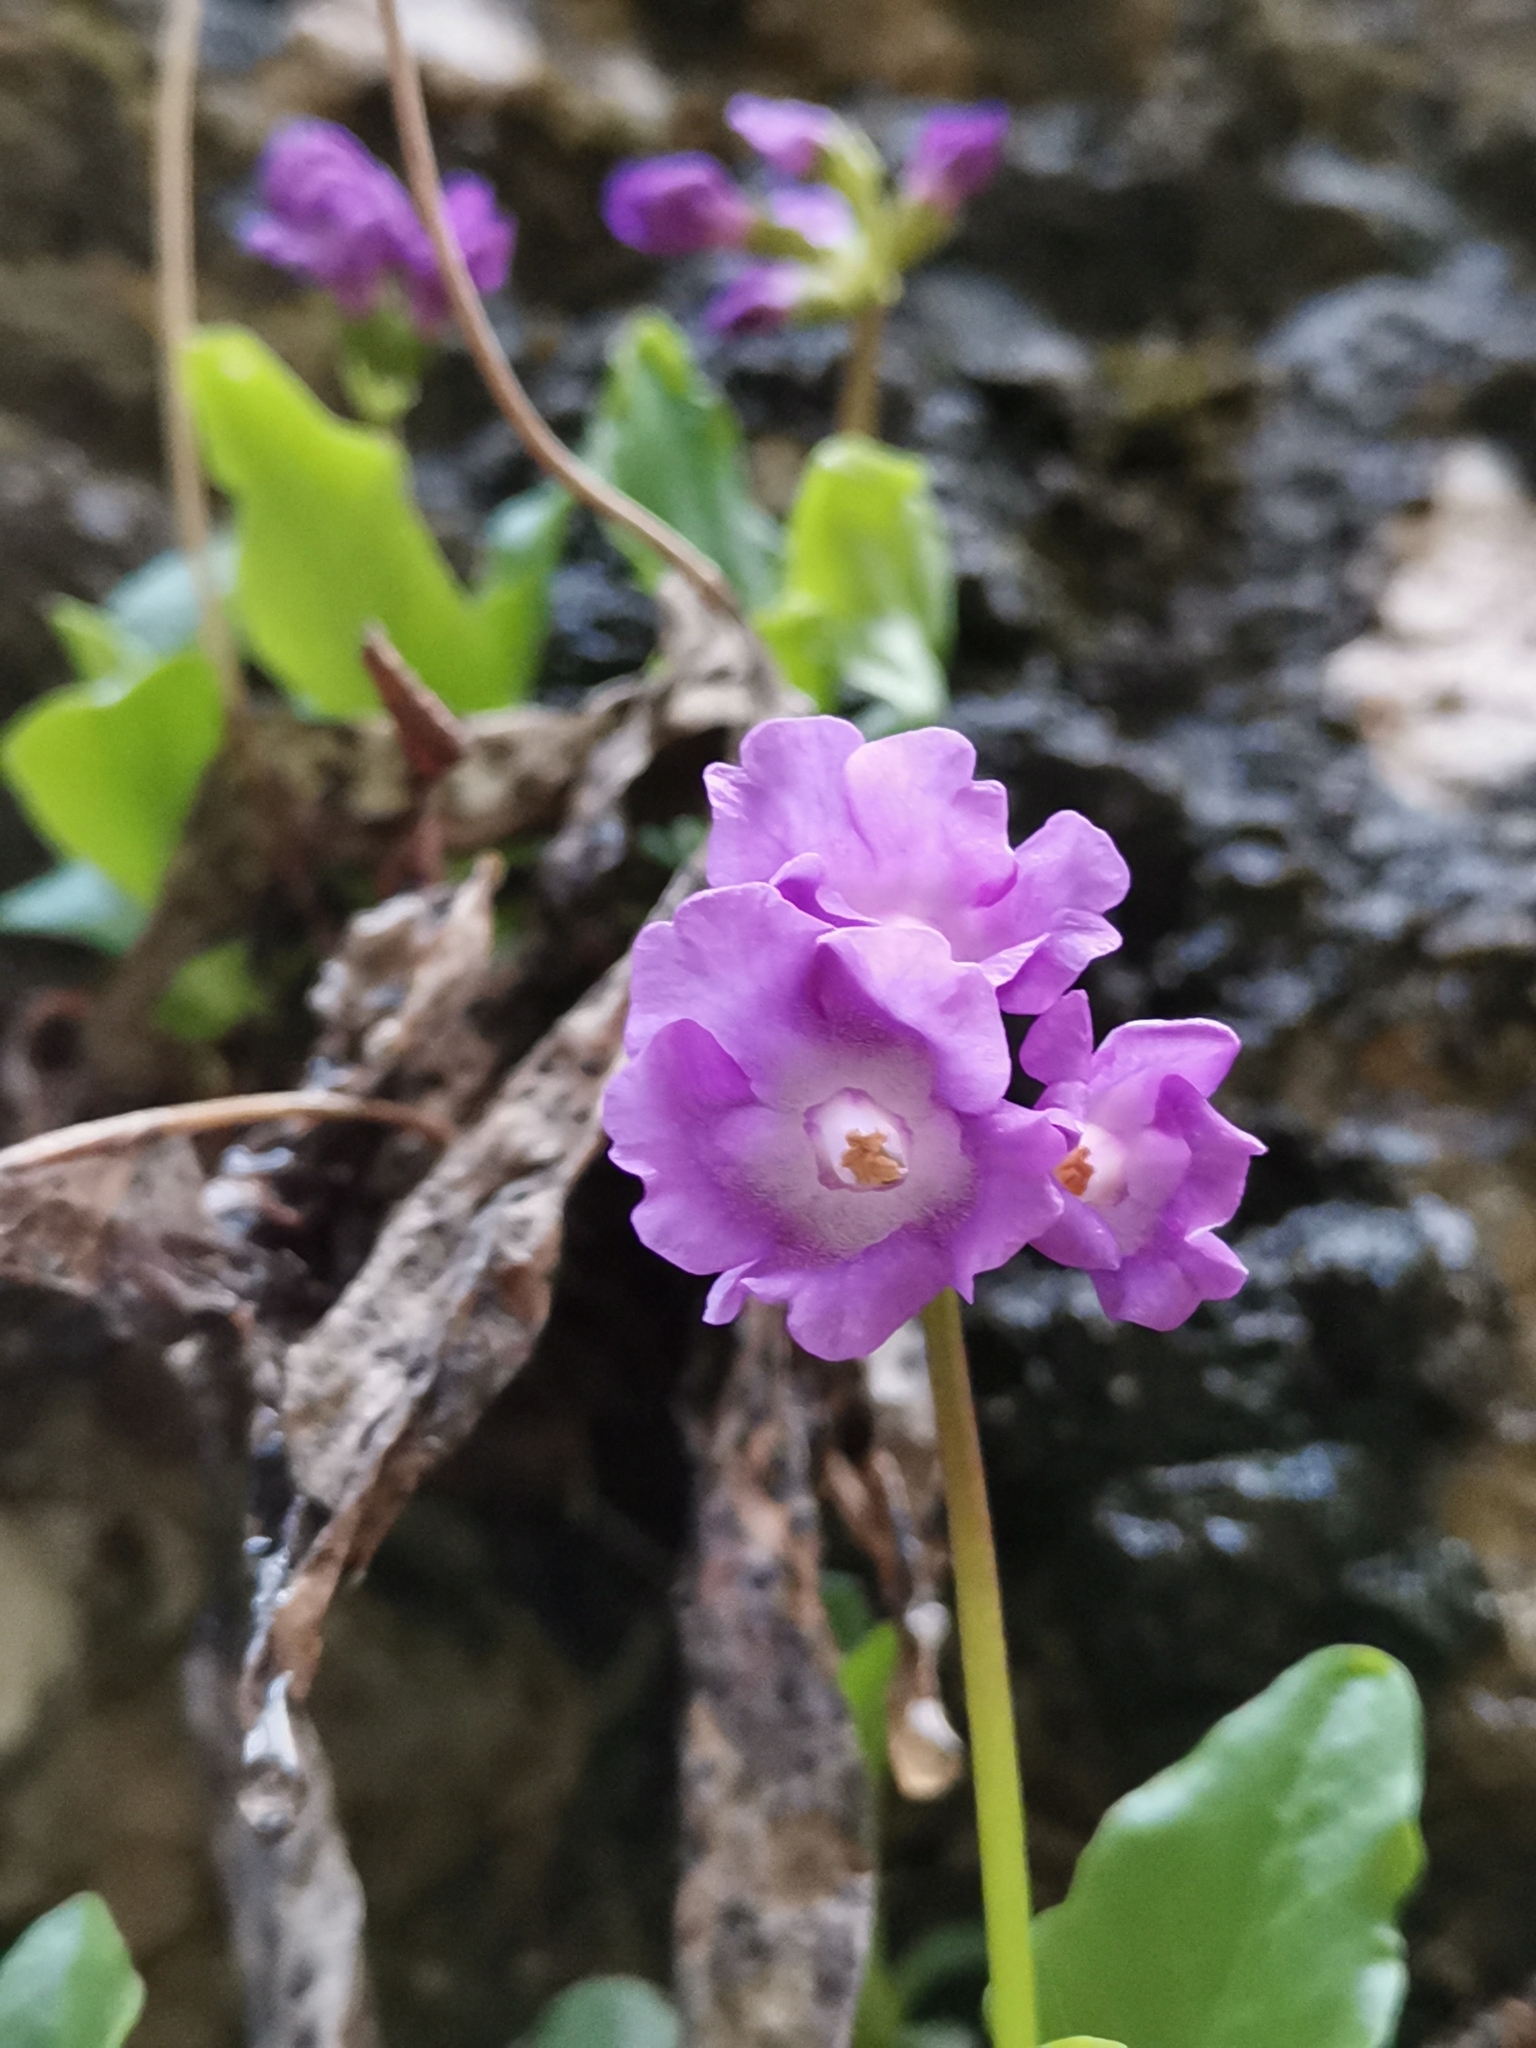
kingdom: Plantae
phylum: Tracheophyta
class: Magnoliopsida
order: Ericales
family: Primulaceae
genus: Primula
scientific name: Primula carniolica
